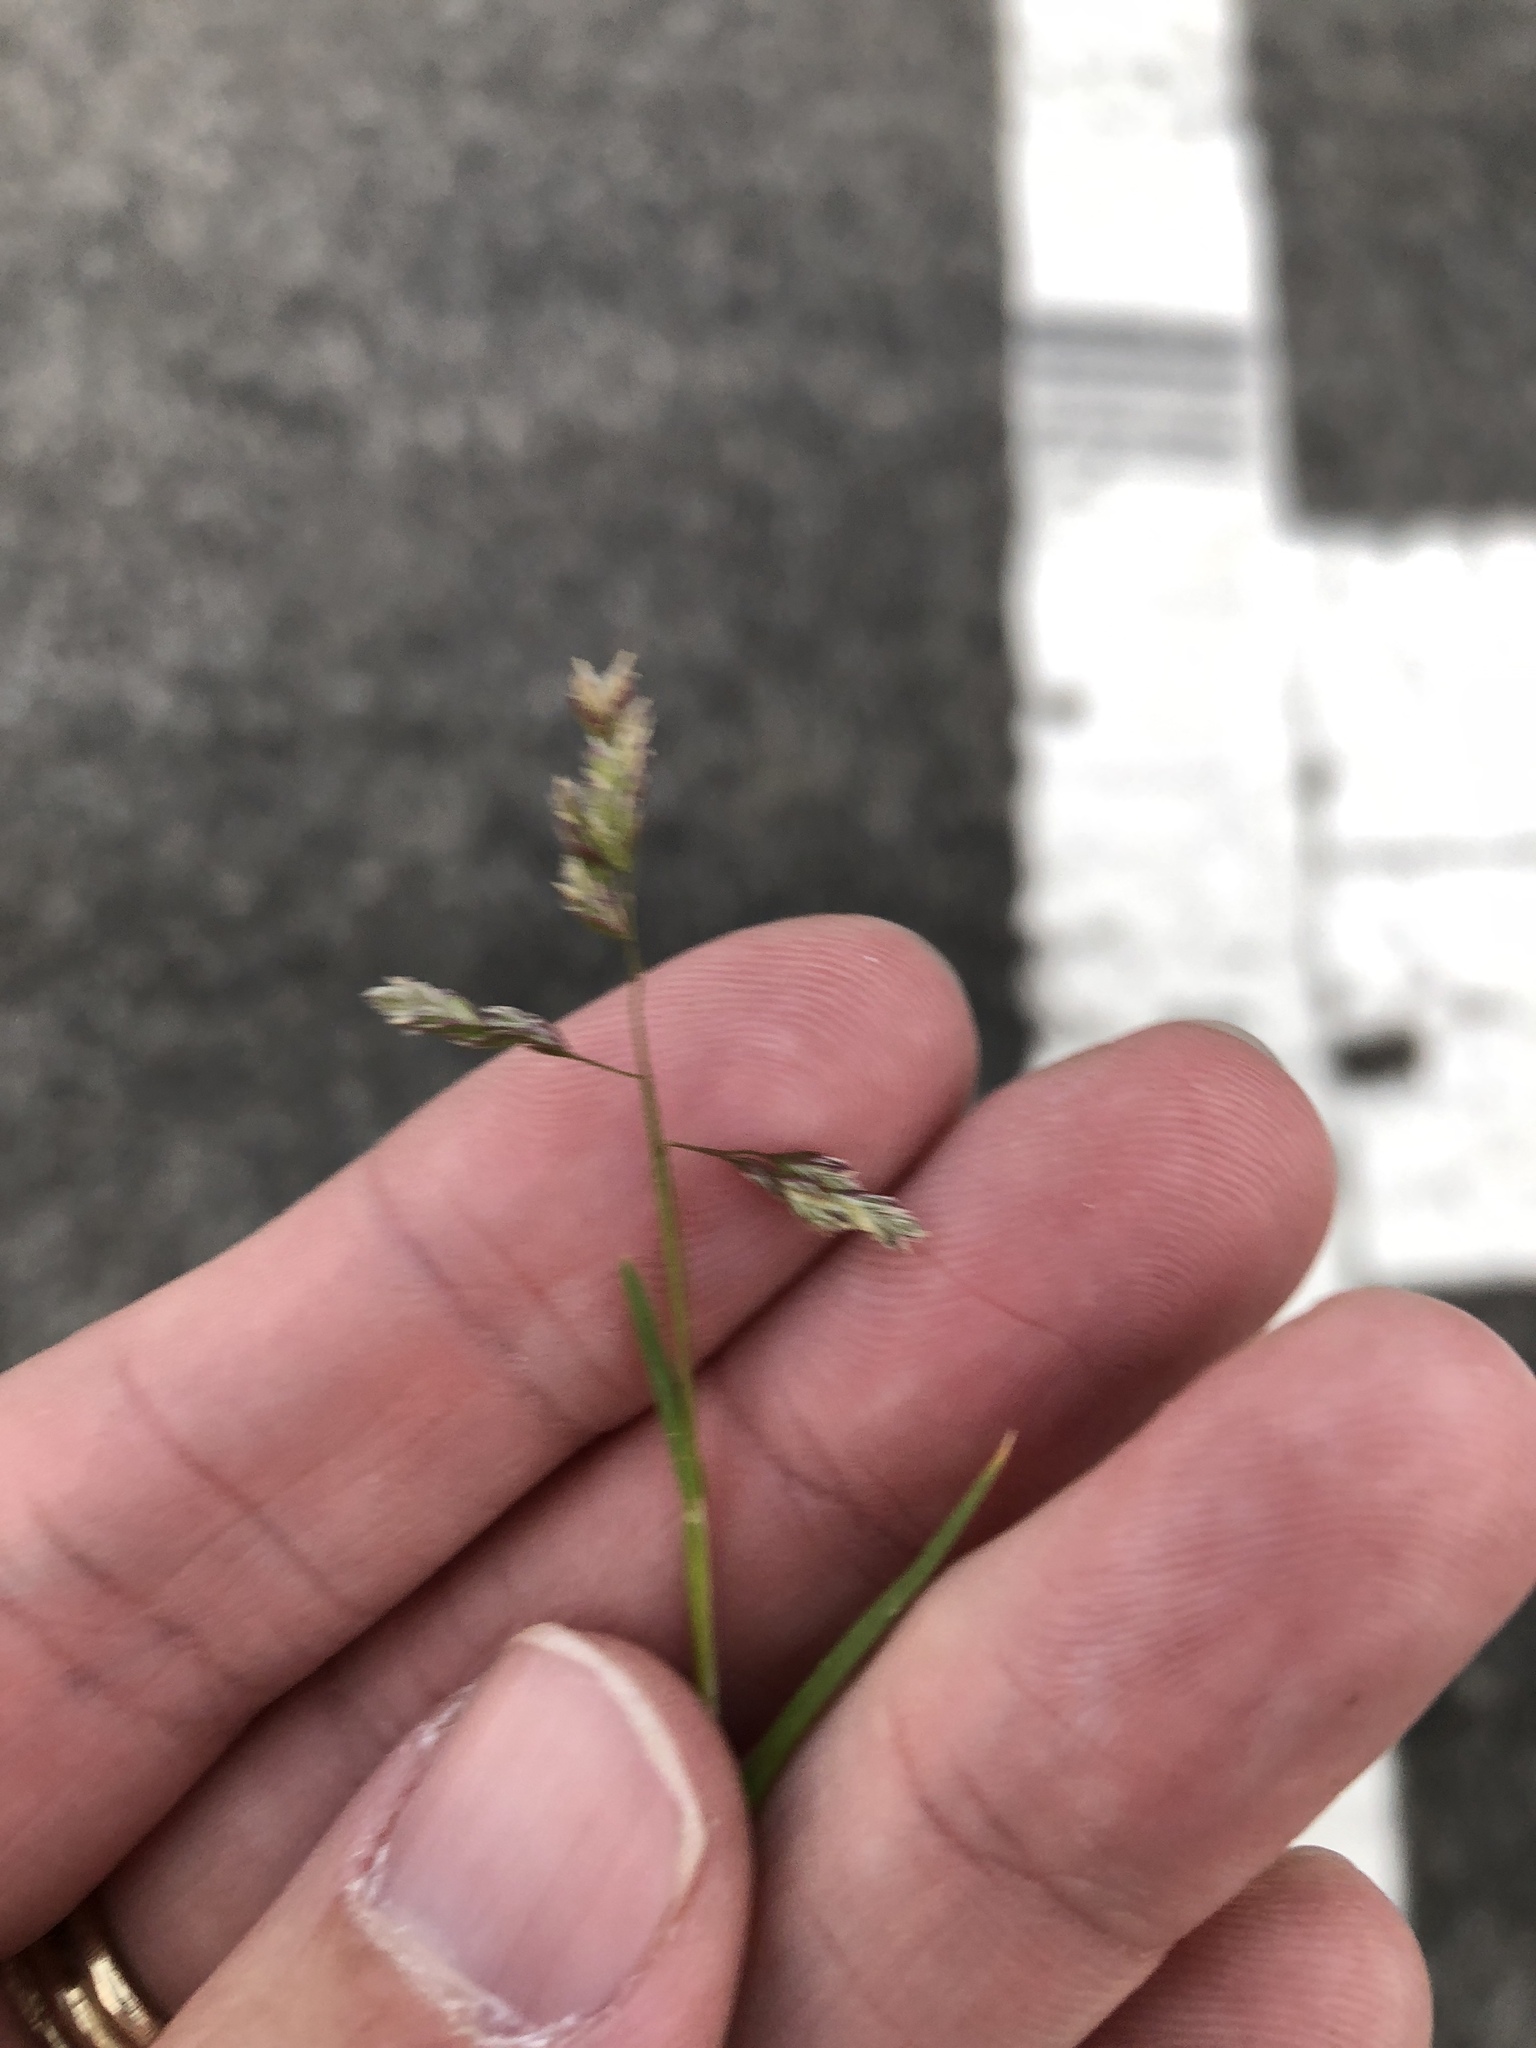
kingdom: Plantae
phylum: Tracheophyta
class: Liliopsida
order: Poales
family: Poaceae
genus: Poa
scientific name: Poa annua
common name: Annual bluegrass
